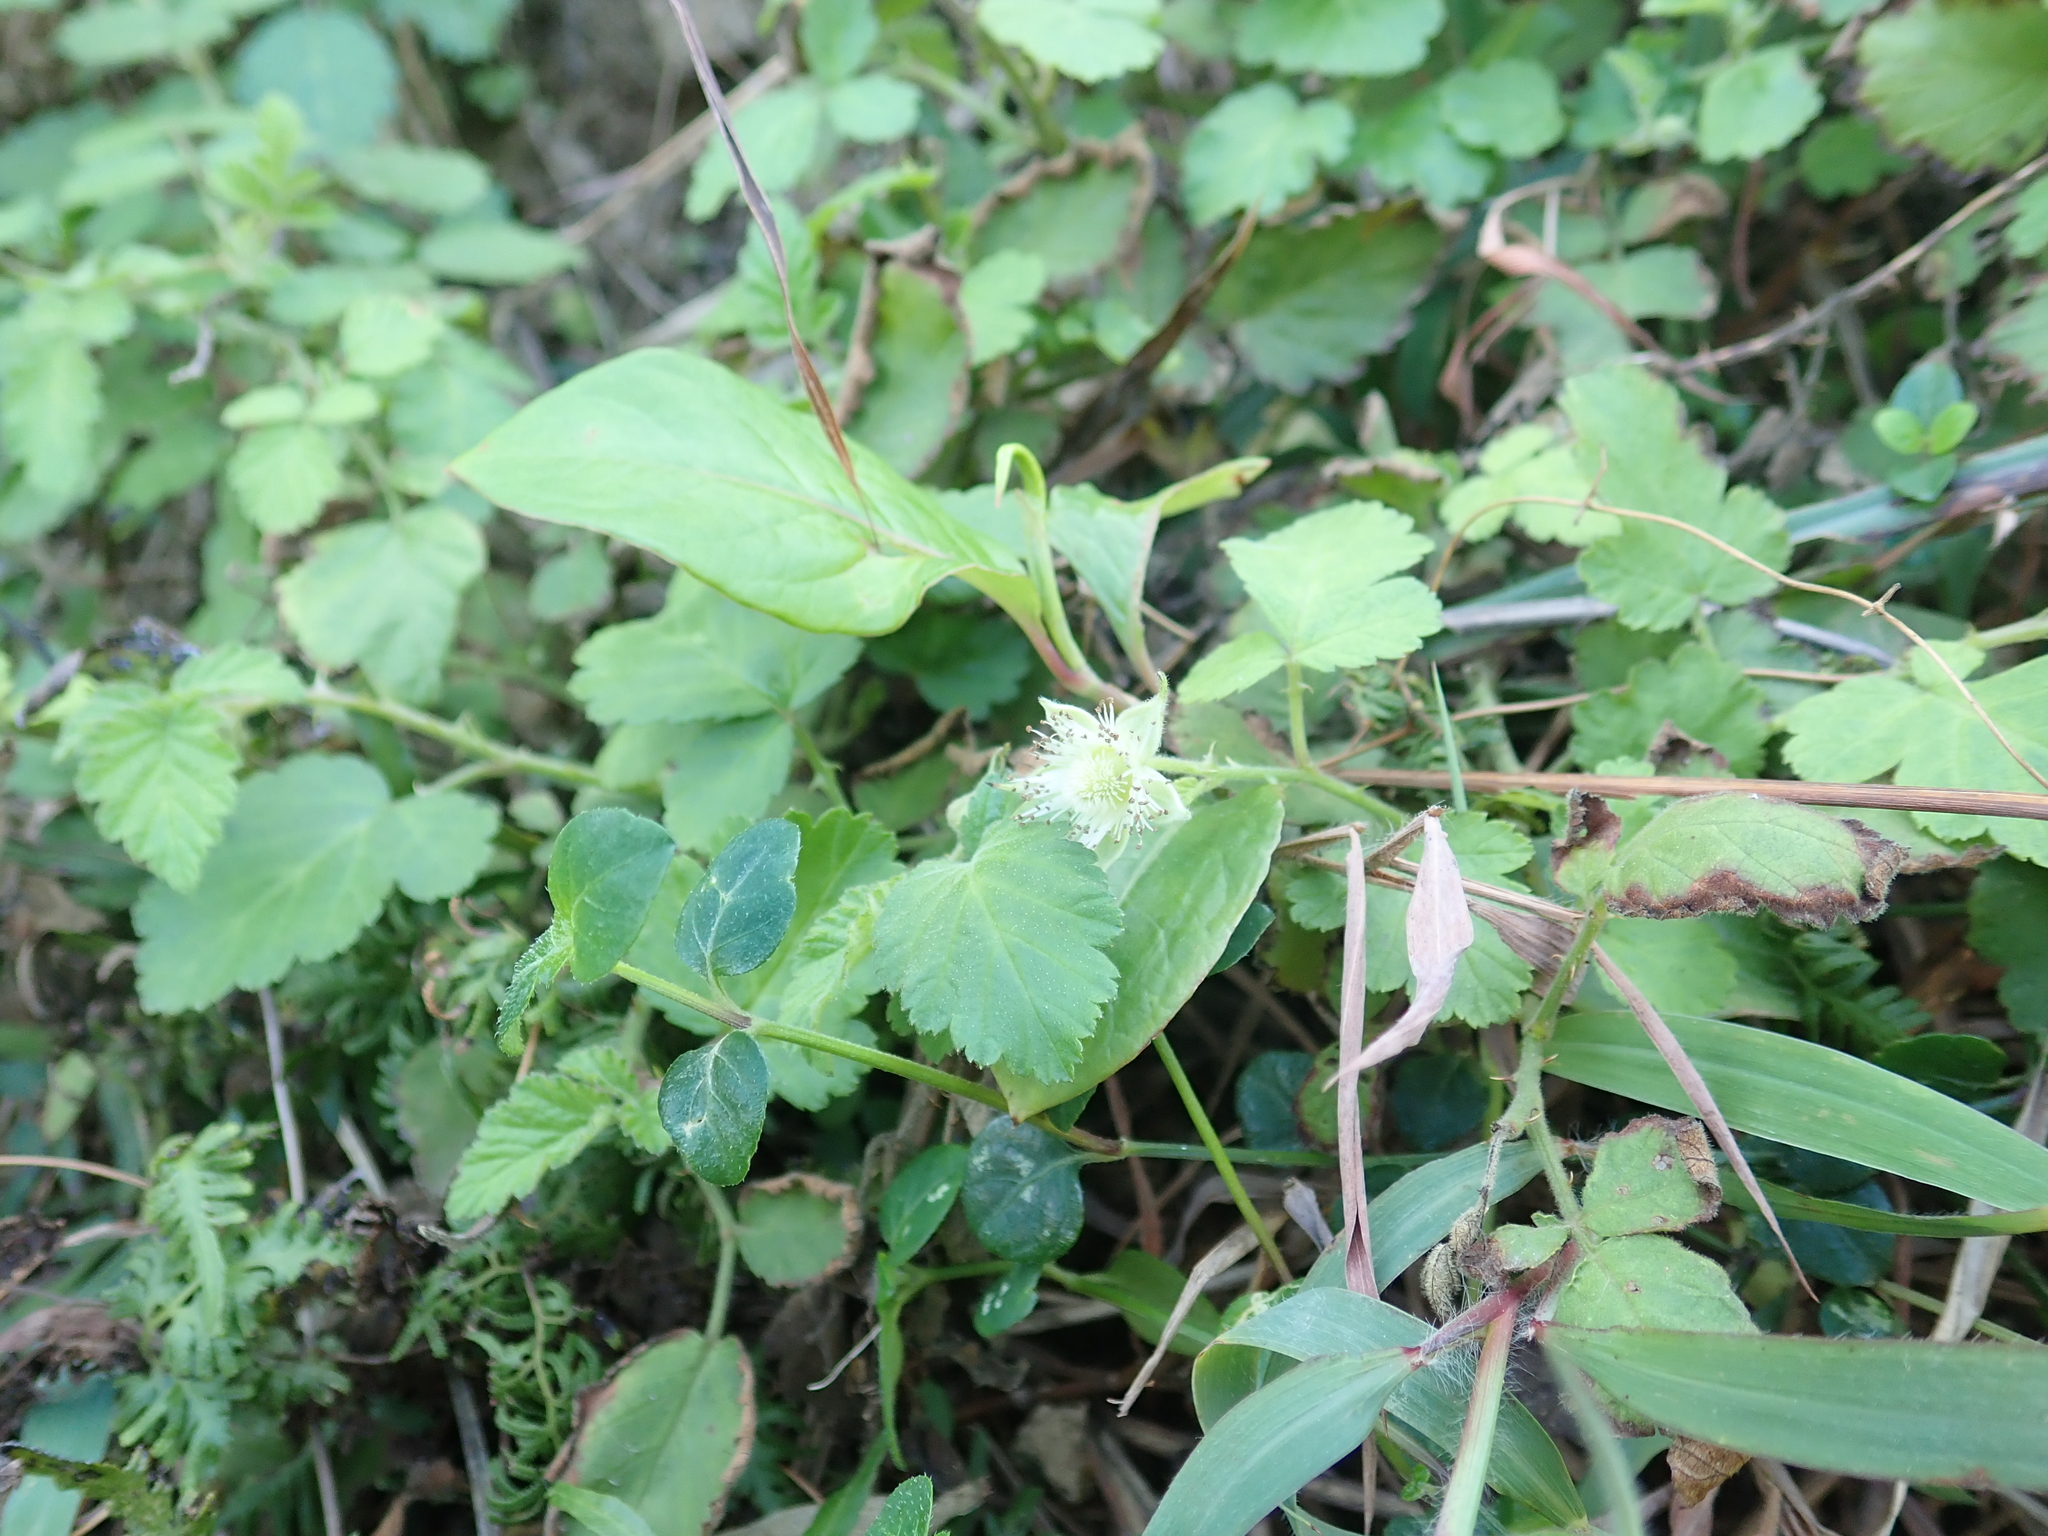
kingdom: Plantae
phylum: Tracheophyta
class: Magnoliopsida
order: Rosales
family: Rosaceae
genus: Rubus
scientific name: Rubus rosifolius
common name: Roseleaf raspberry
